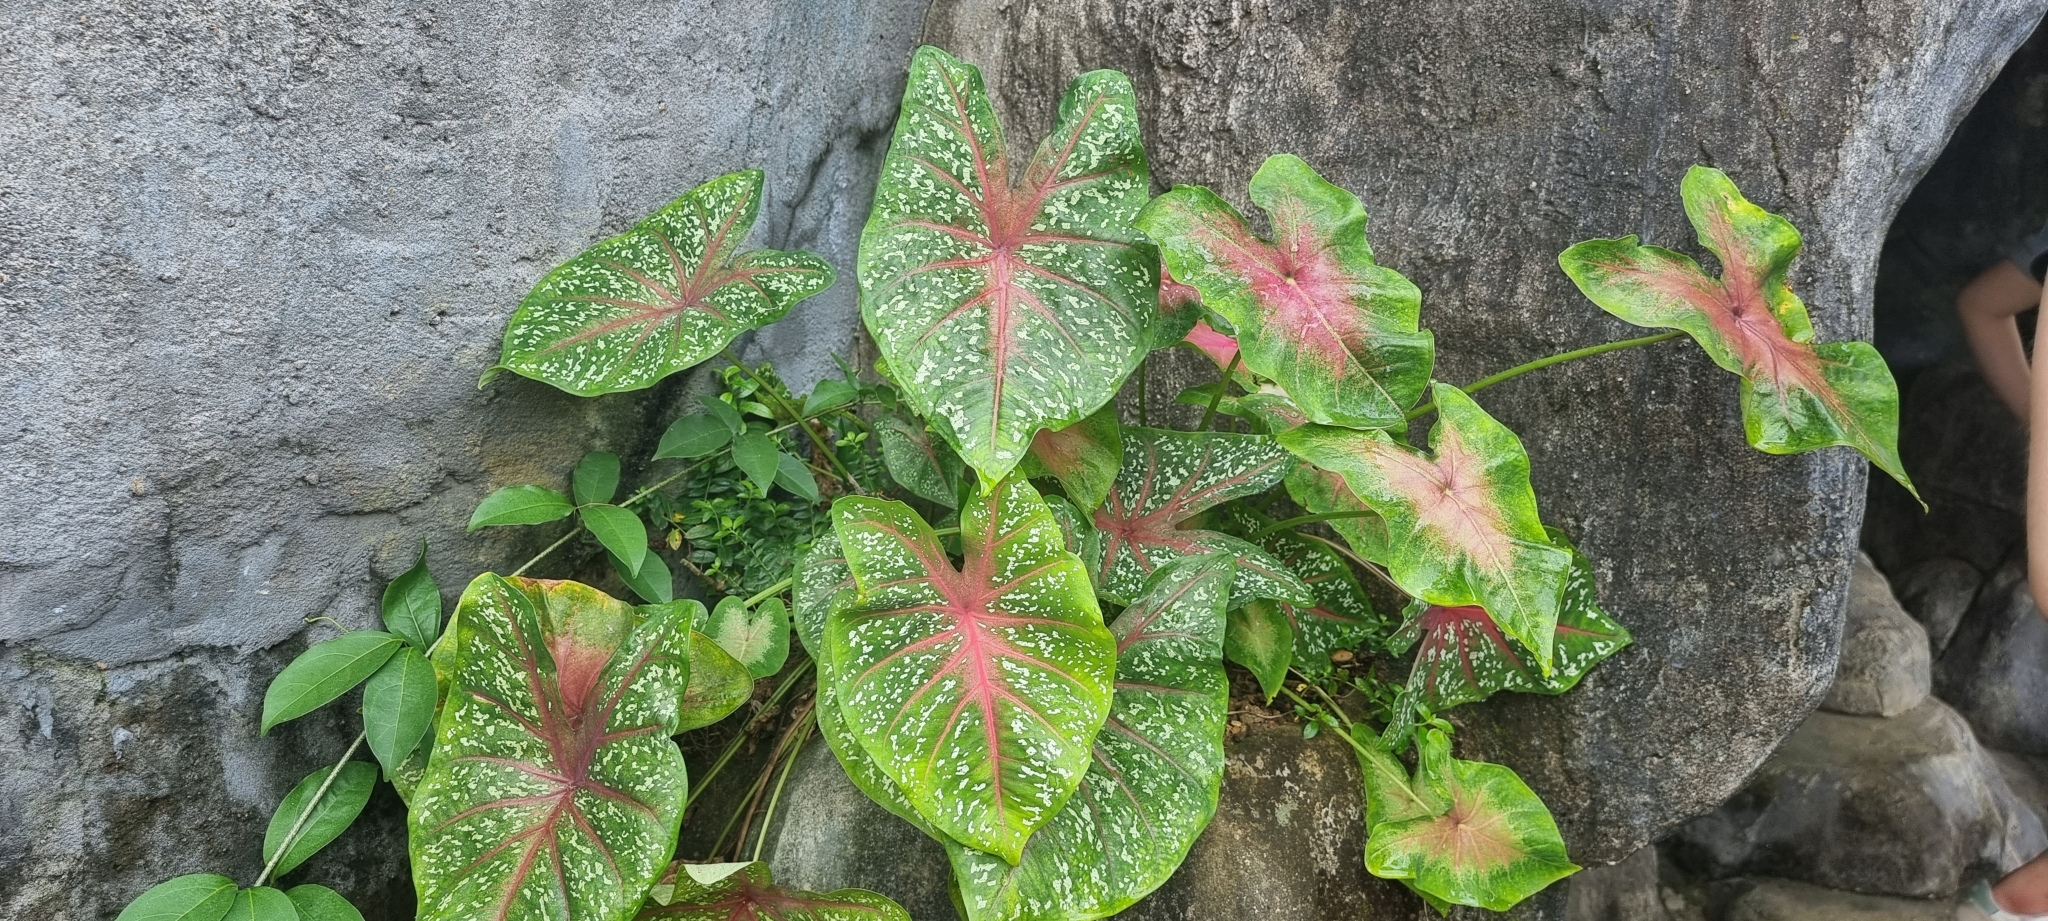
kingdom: Plantae
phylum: Tracheophyta
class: Liliopsida
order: Alismatales
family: Araceae
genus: Caladium
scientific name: Caladium bicolor
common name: Artist's pallet
